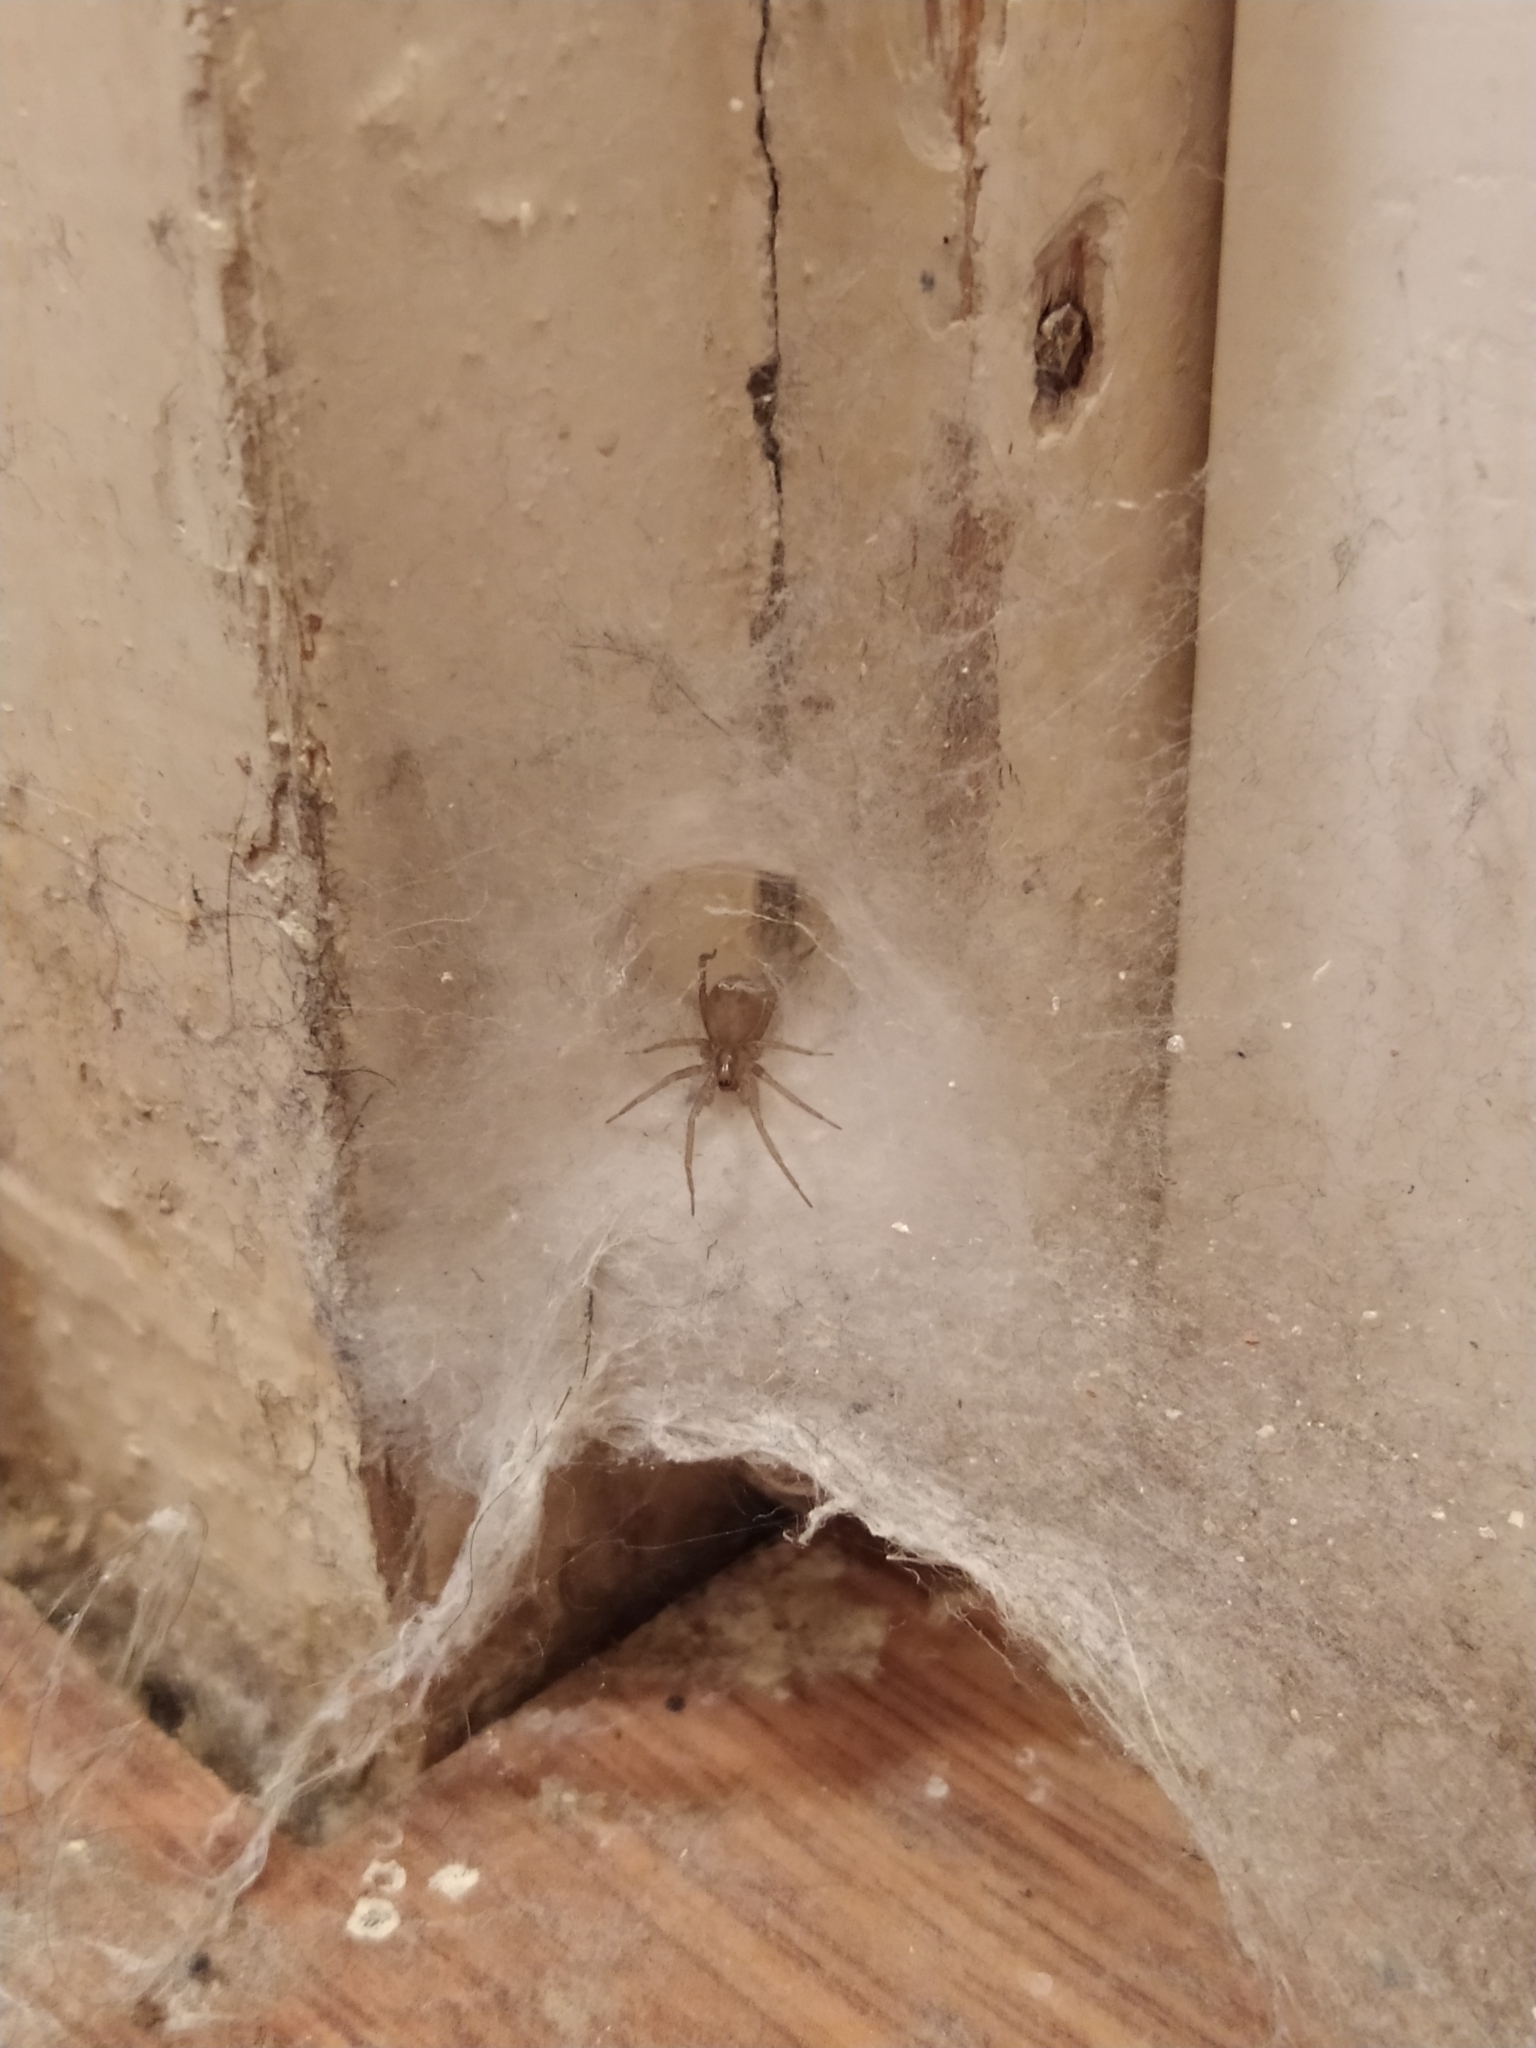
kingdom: Animalia
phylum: Arthropoda
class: Arachnida
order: Araneae
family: Agelenidae
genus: Tegenaria
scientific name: Tegenaria domestica
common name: Barn funnel weaver
